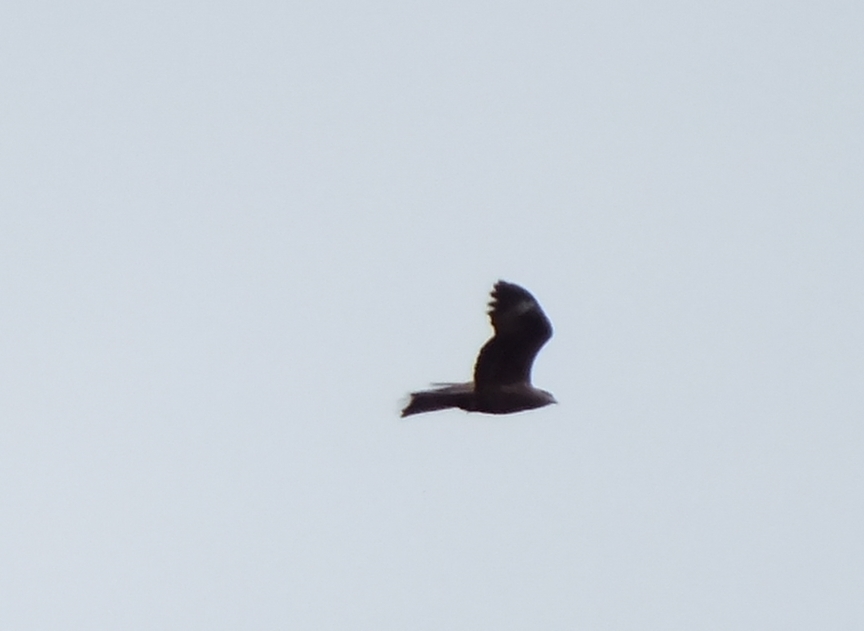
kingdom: Animalia
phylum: Chordata
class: Aves
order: Accipitriformes
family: Accipitridae
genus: Milvus
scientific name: Milvus migrans
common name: Black kite
